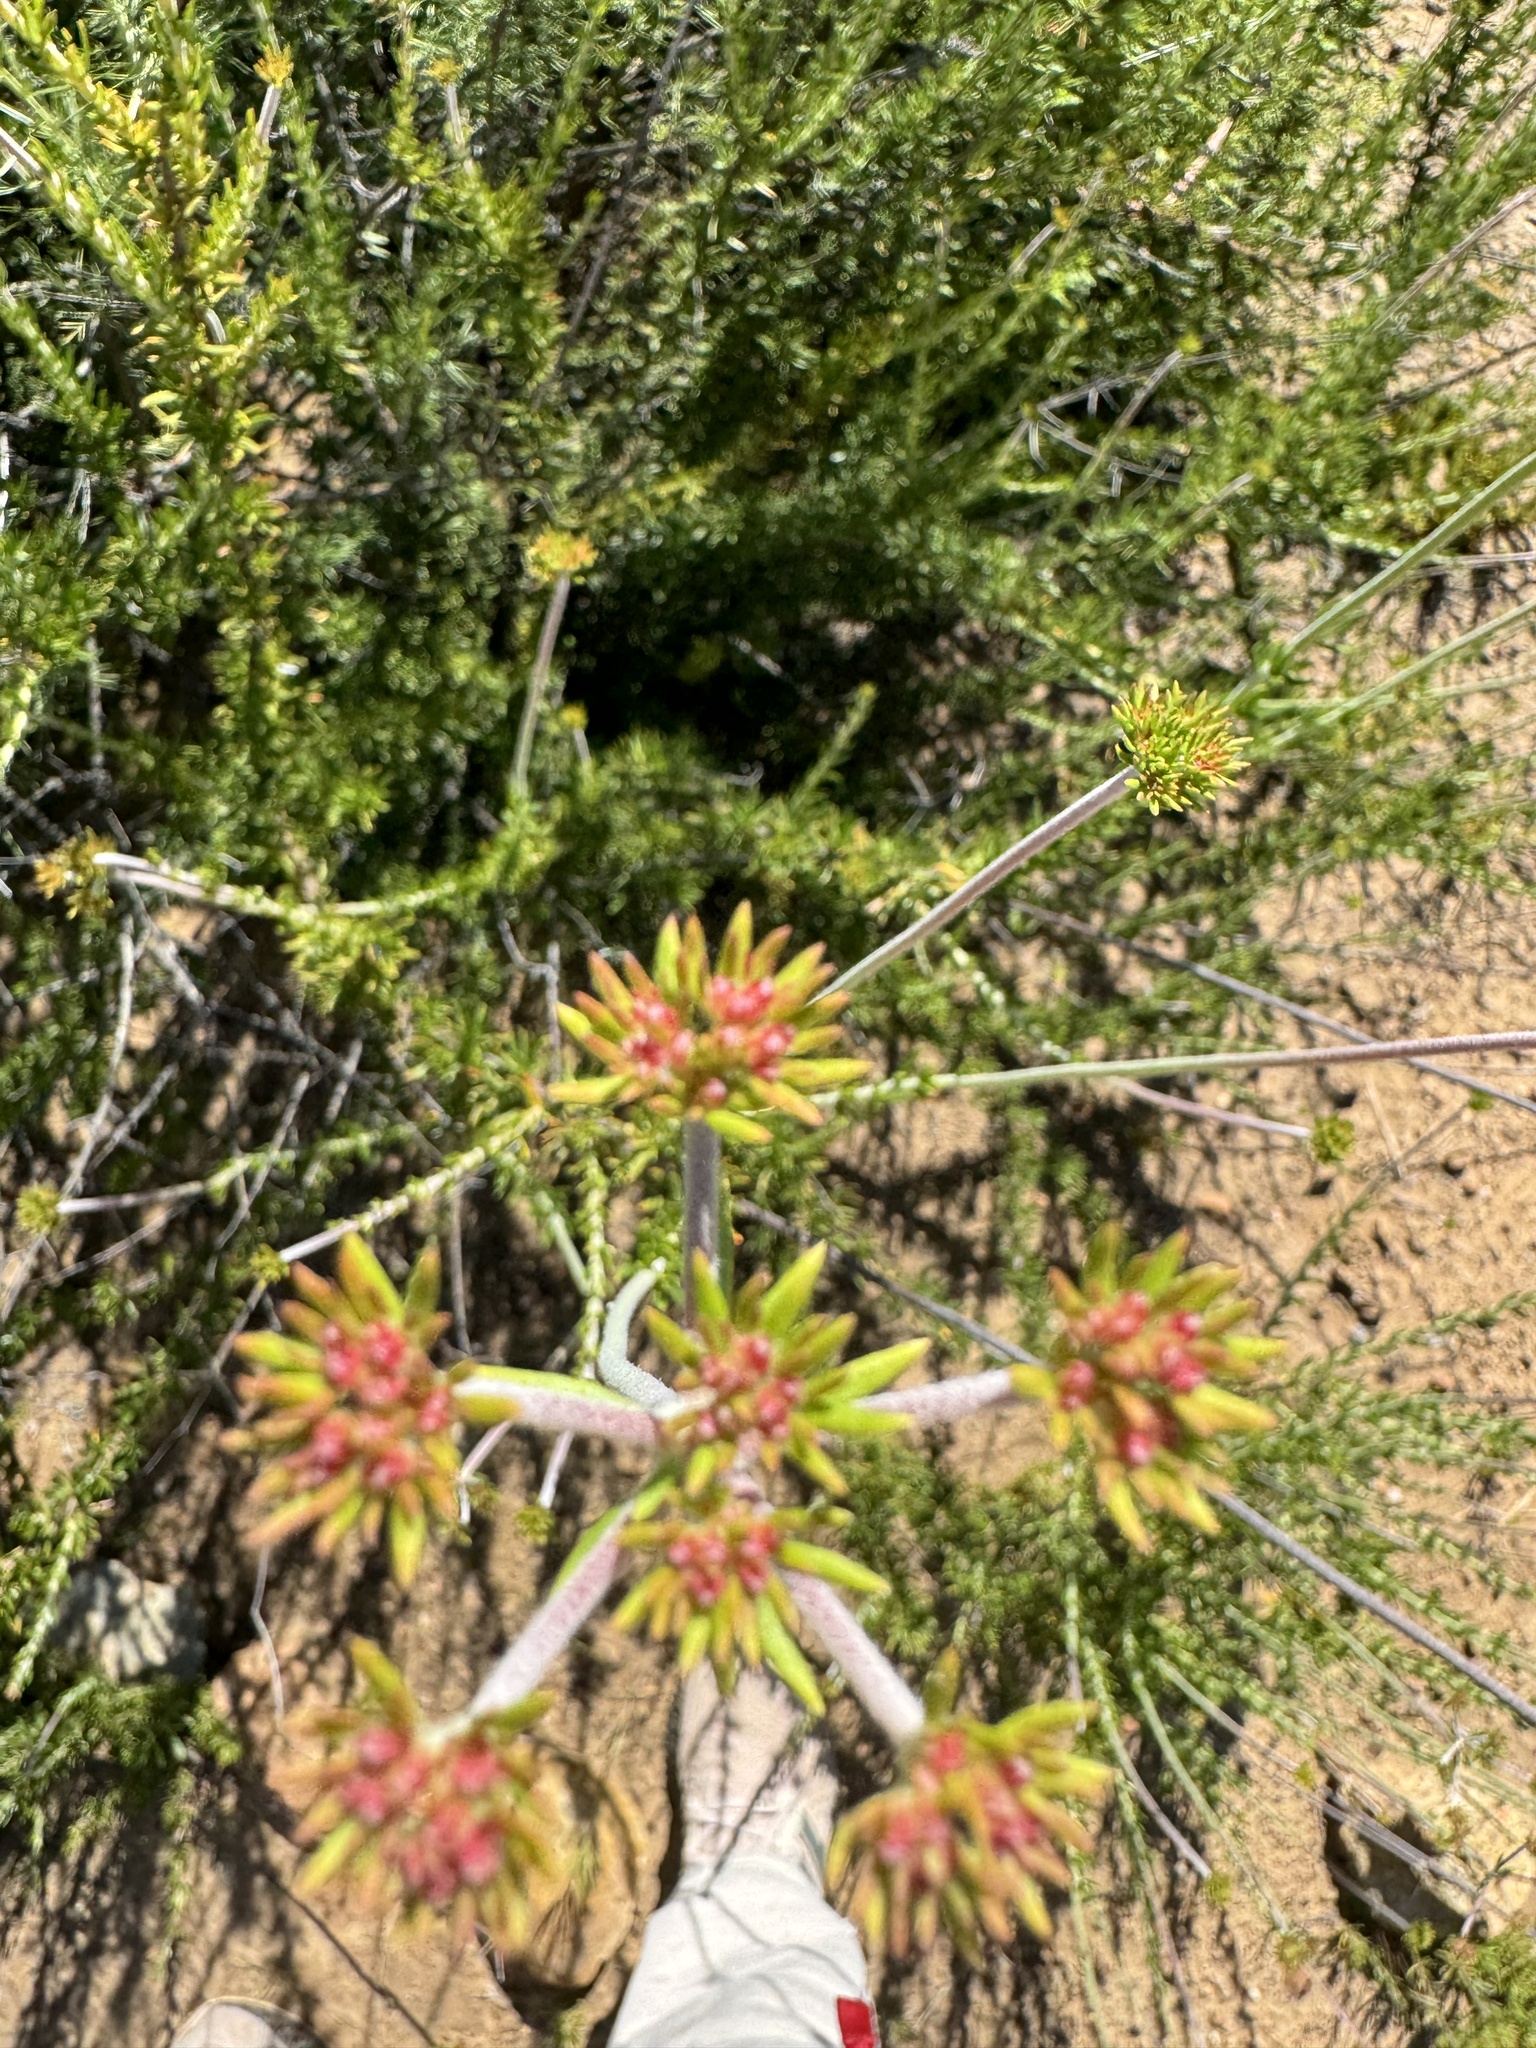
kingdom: Plantae
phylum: Tracheophyta
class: Magnoliopsida
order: Caryophyllales
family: Polygonaceae
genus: Eriogonum
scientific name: Eriogonum fasciculatum
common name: California wild buckwheat
